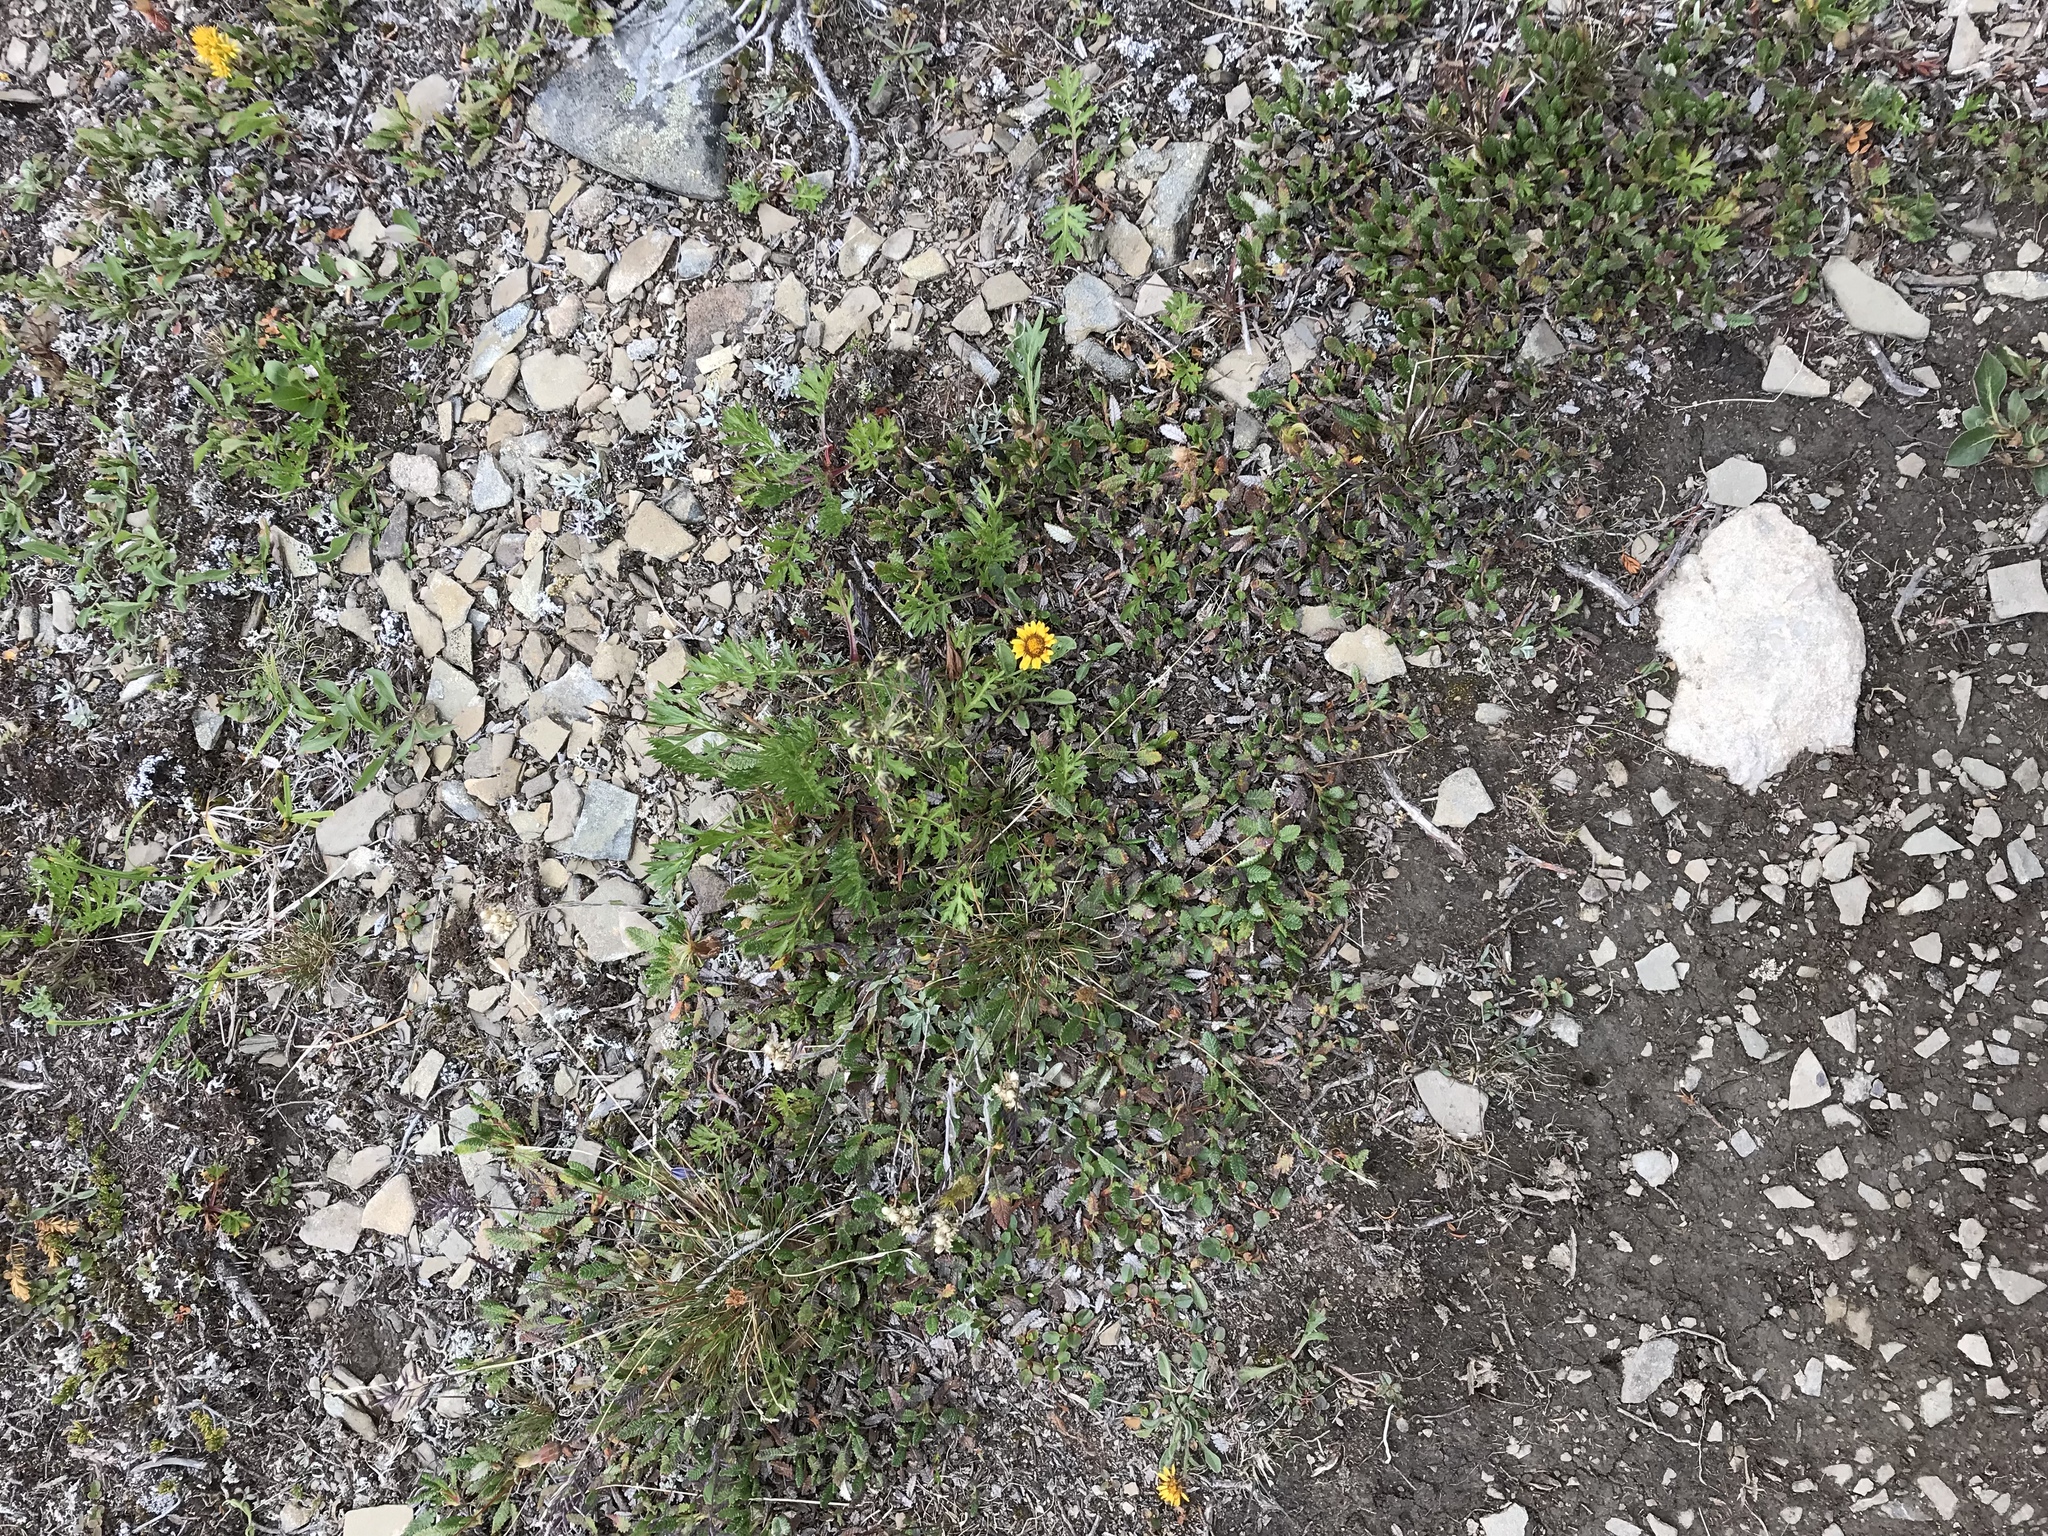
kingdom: Plantae
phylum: Tracheophyta
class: Magnoliopsida
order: Asterales
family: Asteraceae
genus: Erigeron
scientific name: Erigeron aureus
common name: Alpine yellow fleabane
